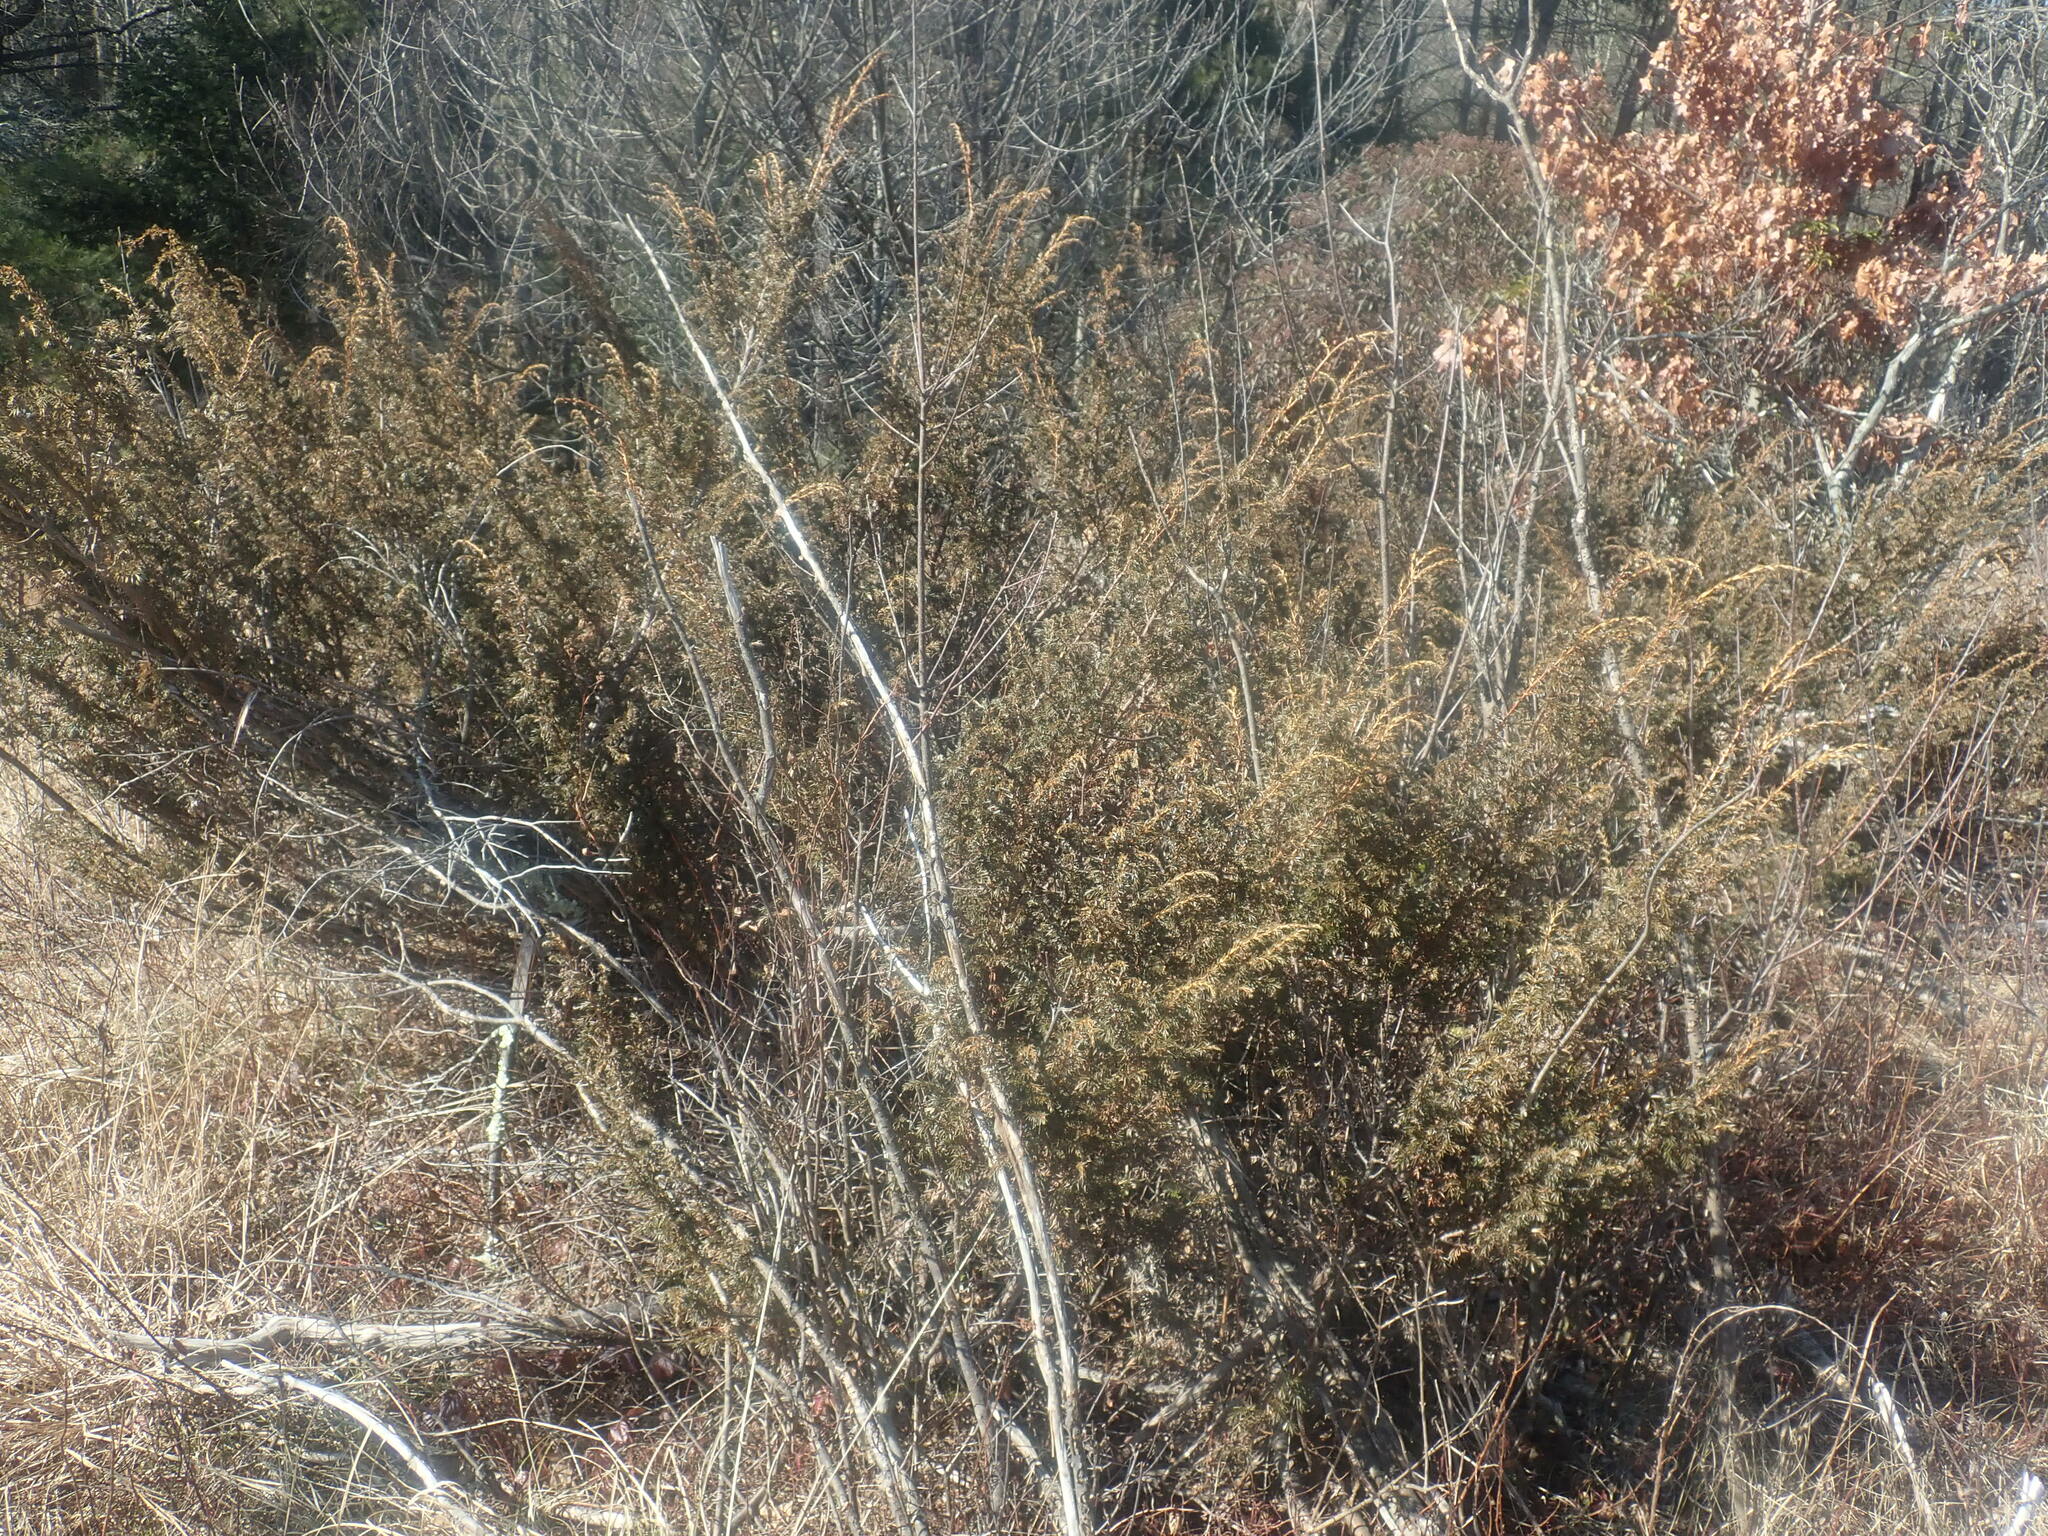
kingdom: Plantae
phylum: Tracheophyta
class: Pinopsida
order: Pinales
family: Cupressaceae
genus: Juniperus
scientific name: Juniperus communis
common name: Common juniper
